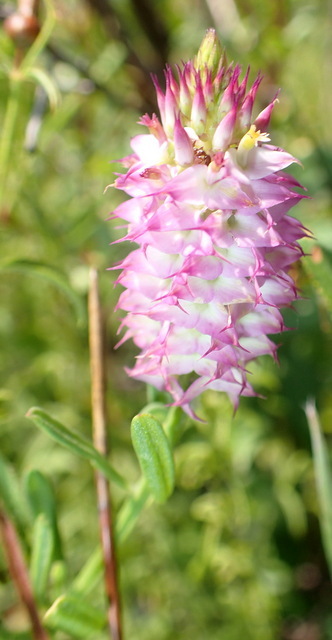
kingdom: Plantae
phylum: Tracheophyta
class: Magnoliopsida
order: Fabales
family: Polygalaceae
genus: Polygala
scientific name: Polygala cruciata
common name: Drumheads
